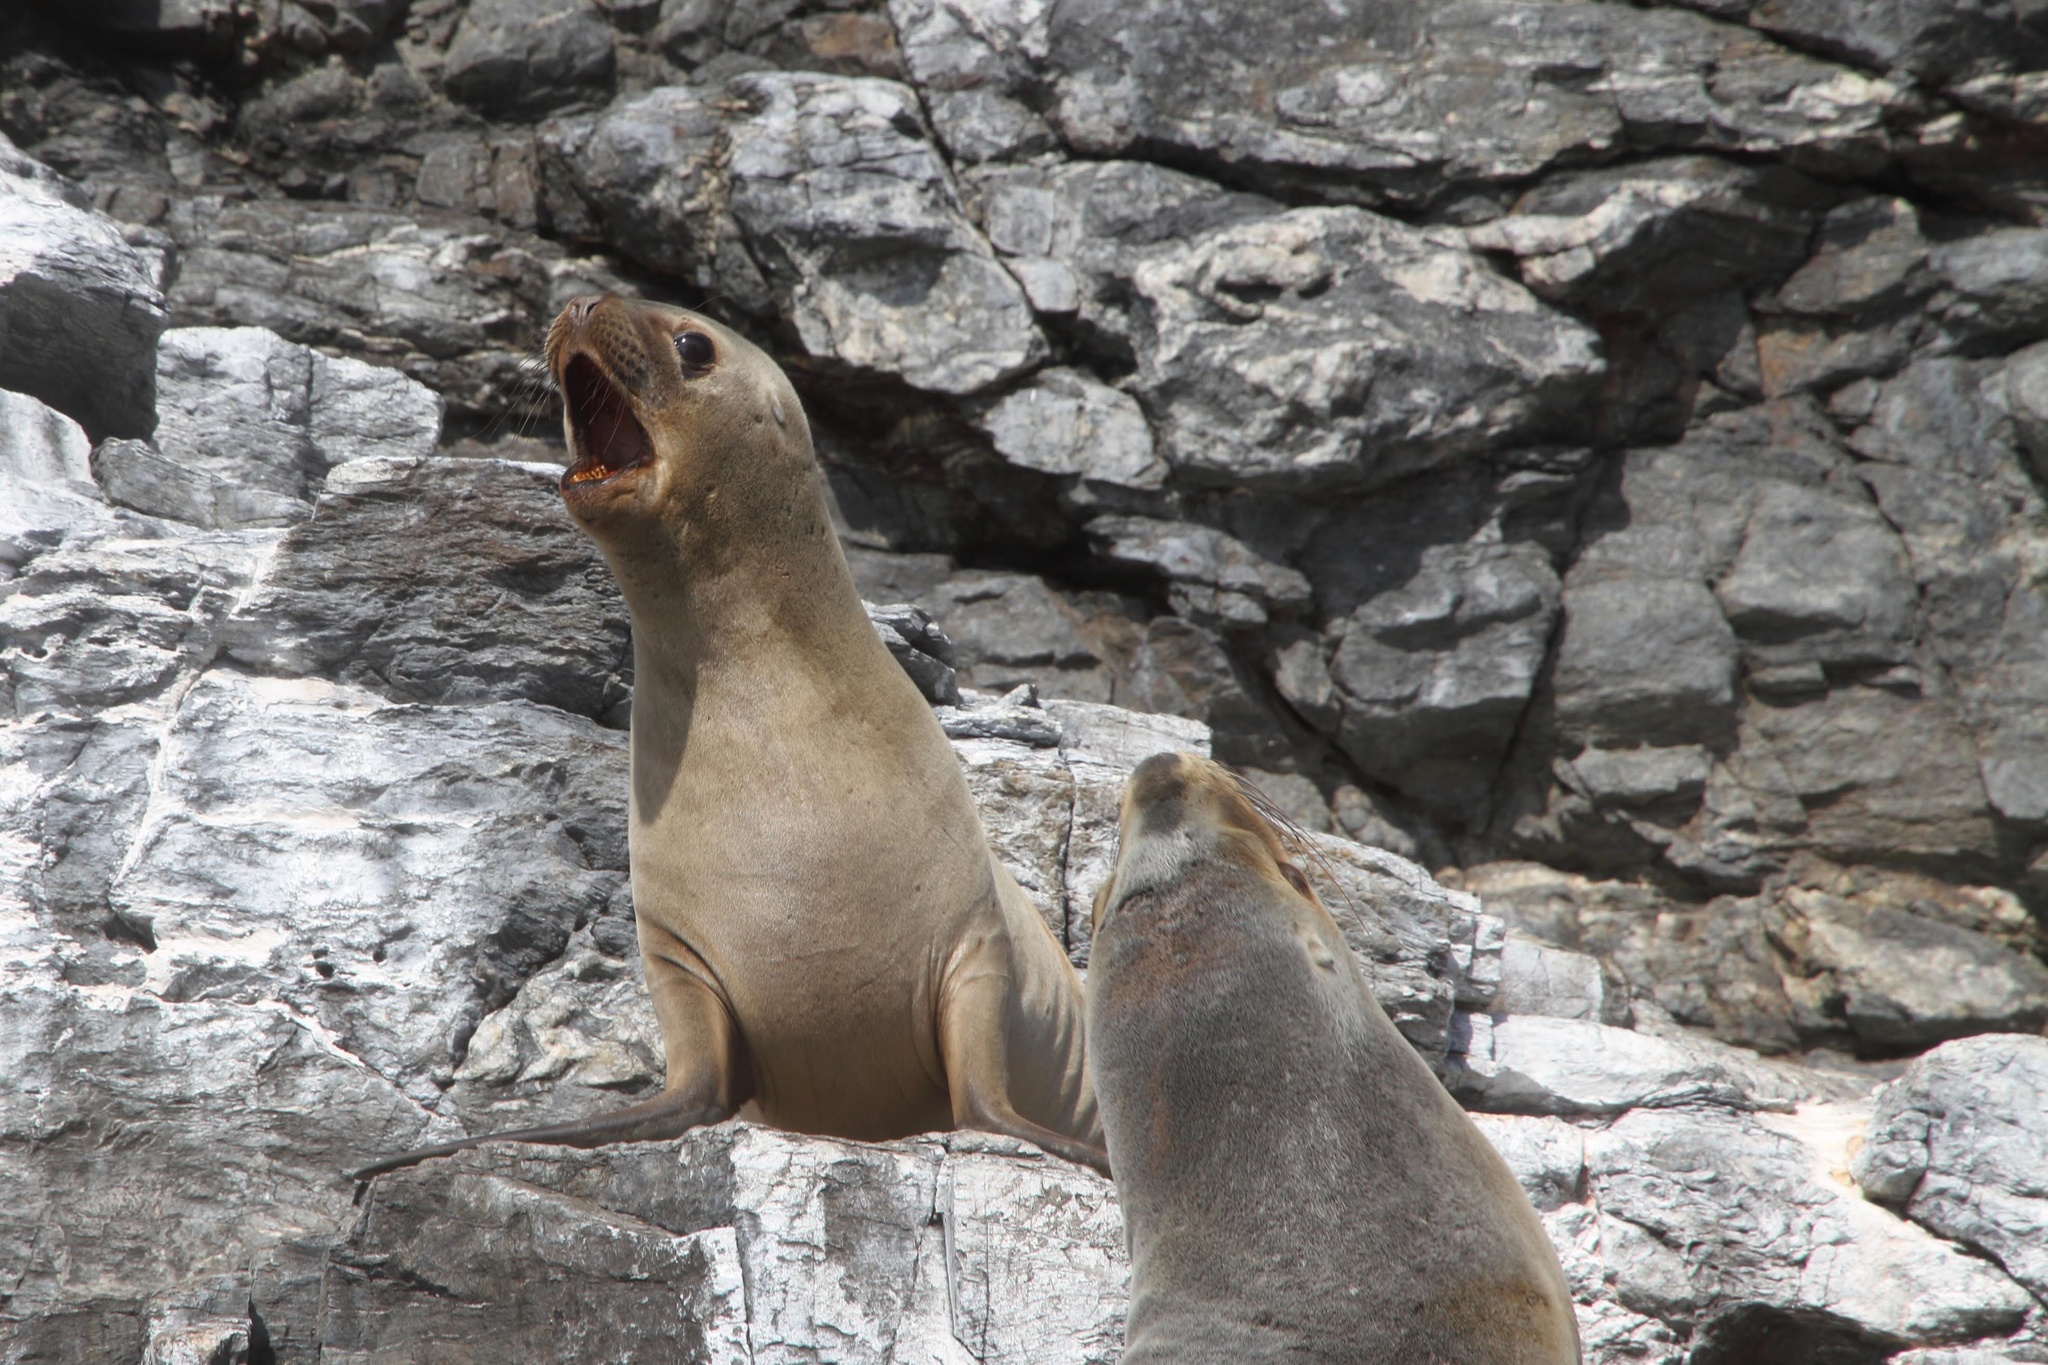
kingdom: Animalia
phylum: Chordata
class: Mammalia
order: Carnivora
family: Otariidae
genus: Otaria
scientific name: Otaria byronia
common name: South american sea lion
